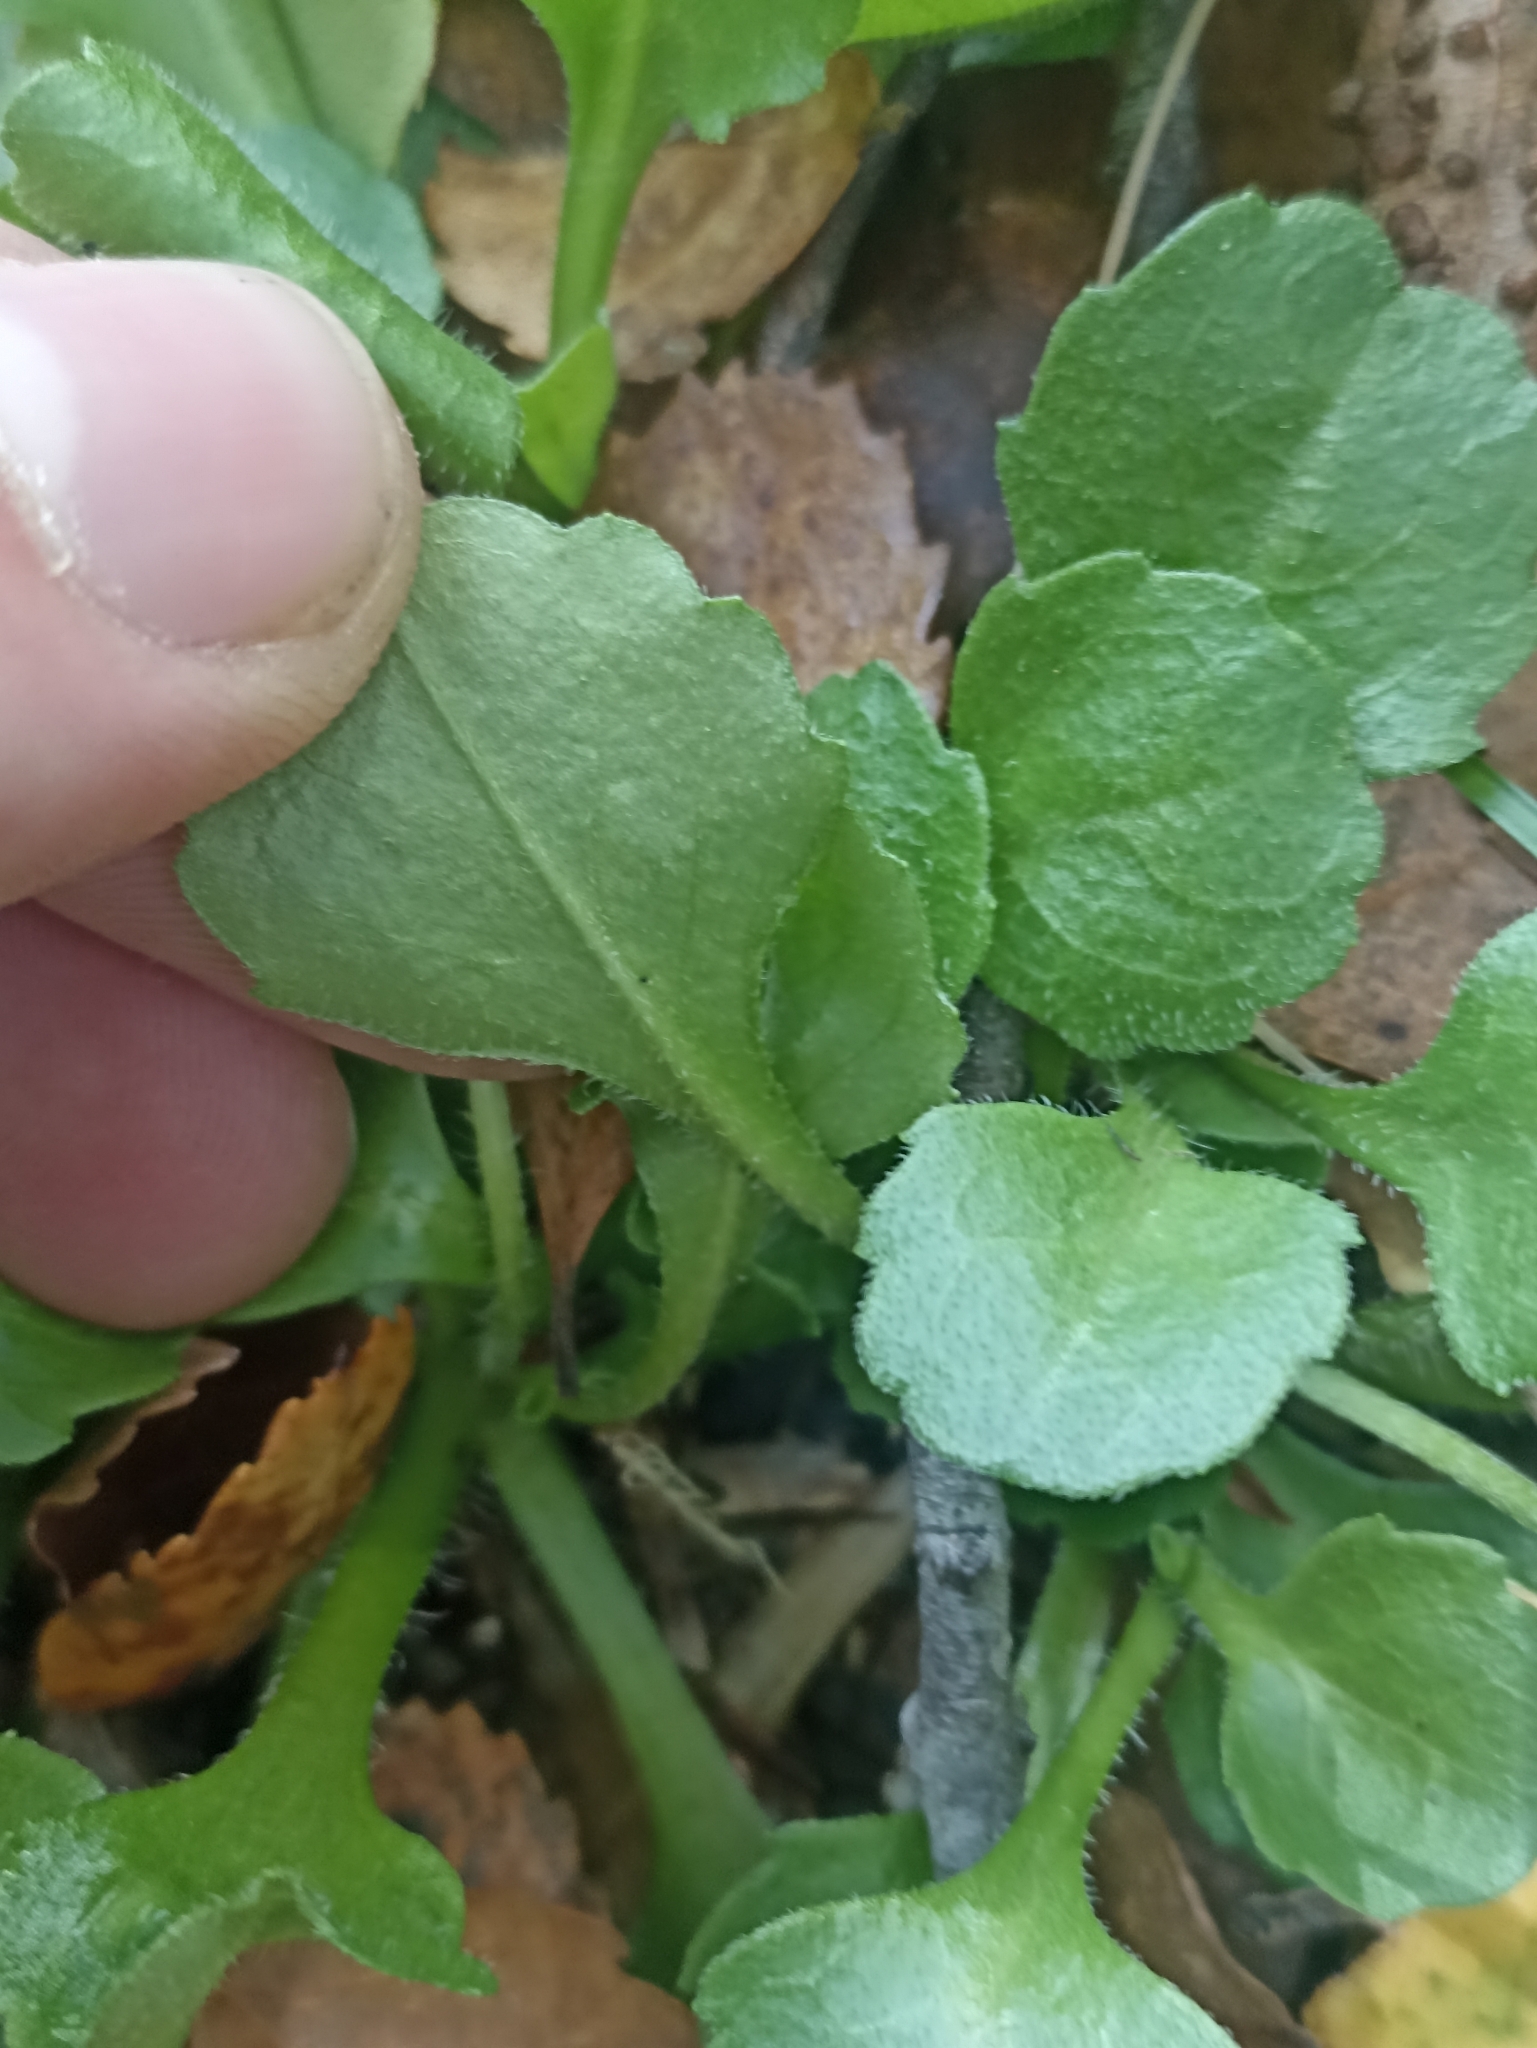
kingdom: Plantae
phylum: Tracheophyta
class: Magnoliopsida
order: Asterales
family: Asteraceae
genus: Bellis
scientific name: Bellis perennis
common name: Lawndaisy
